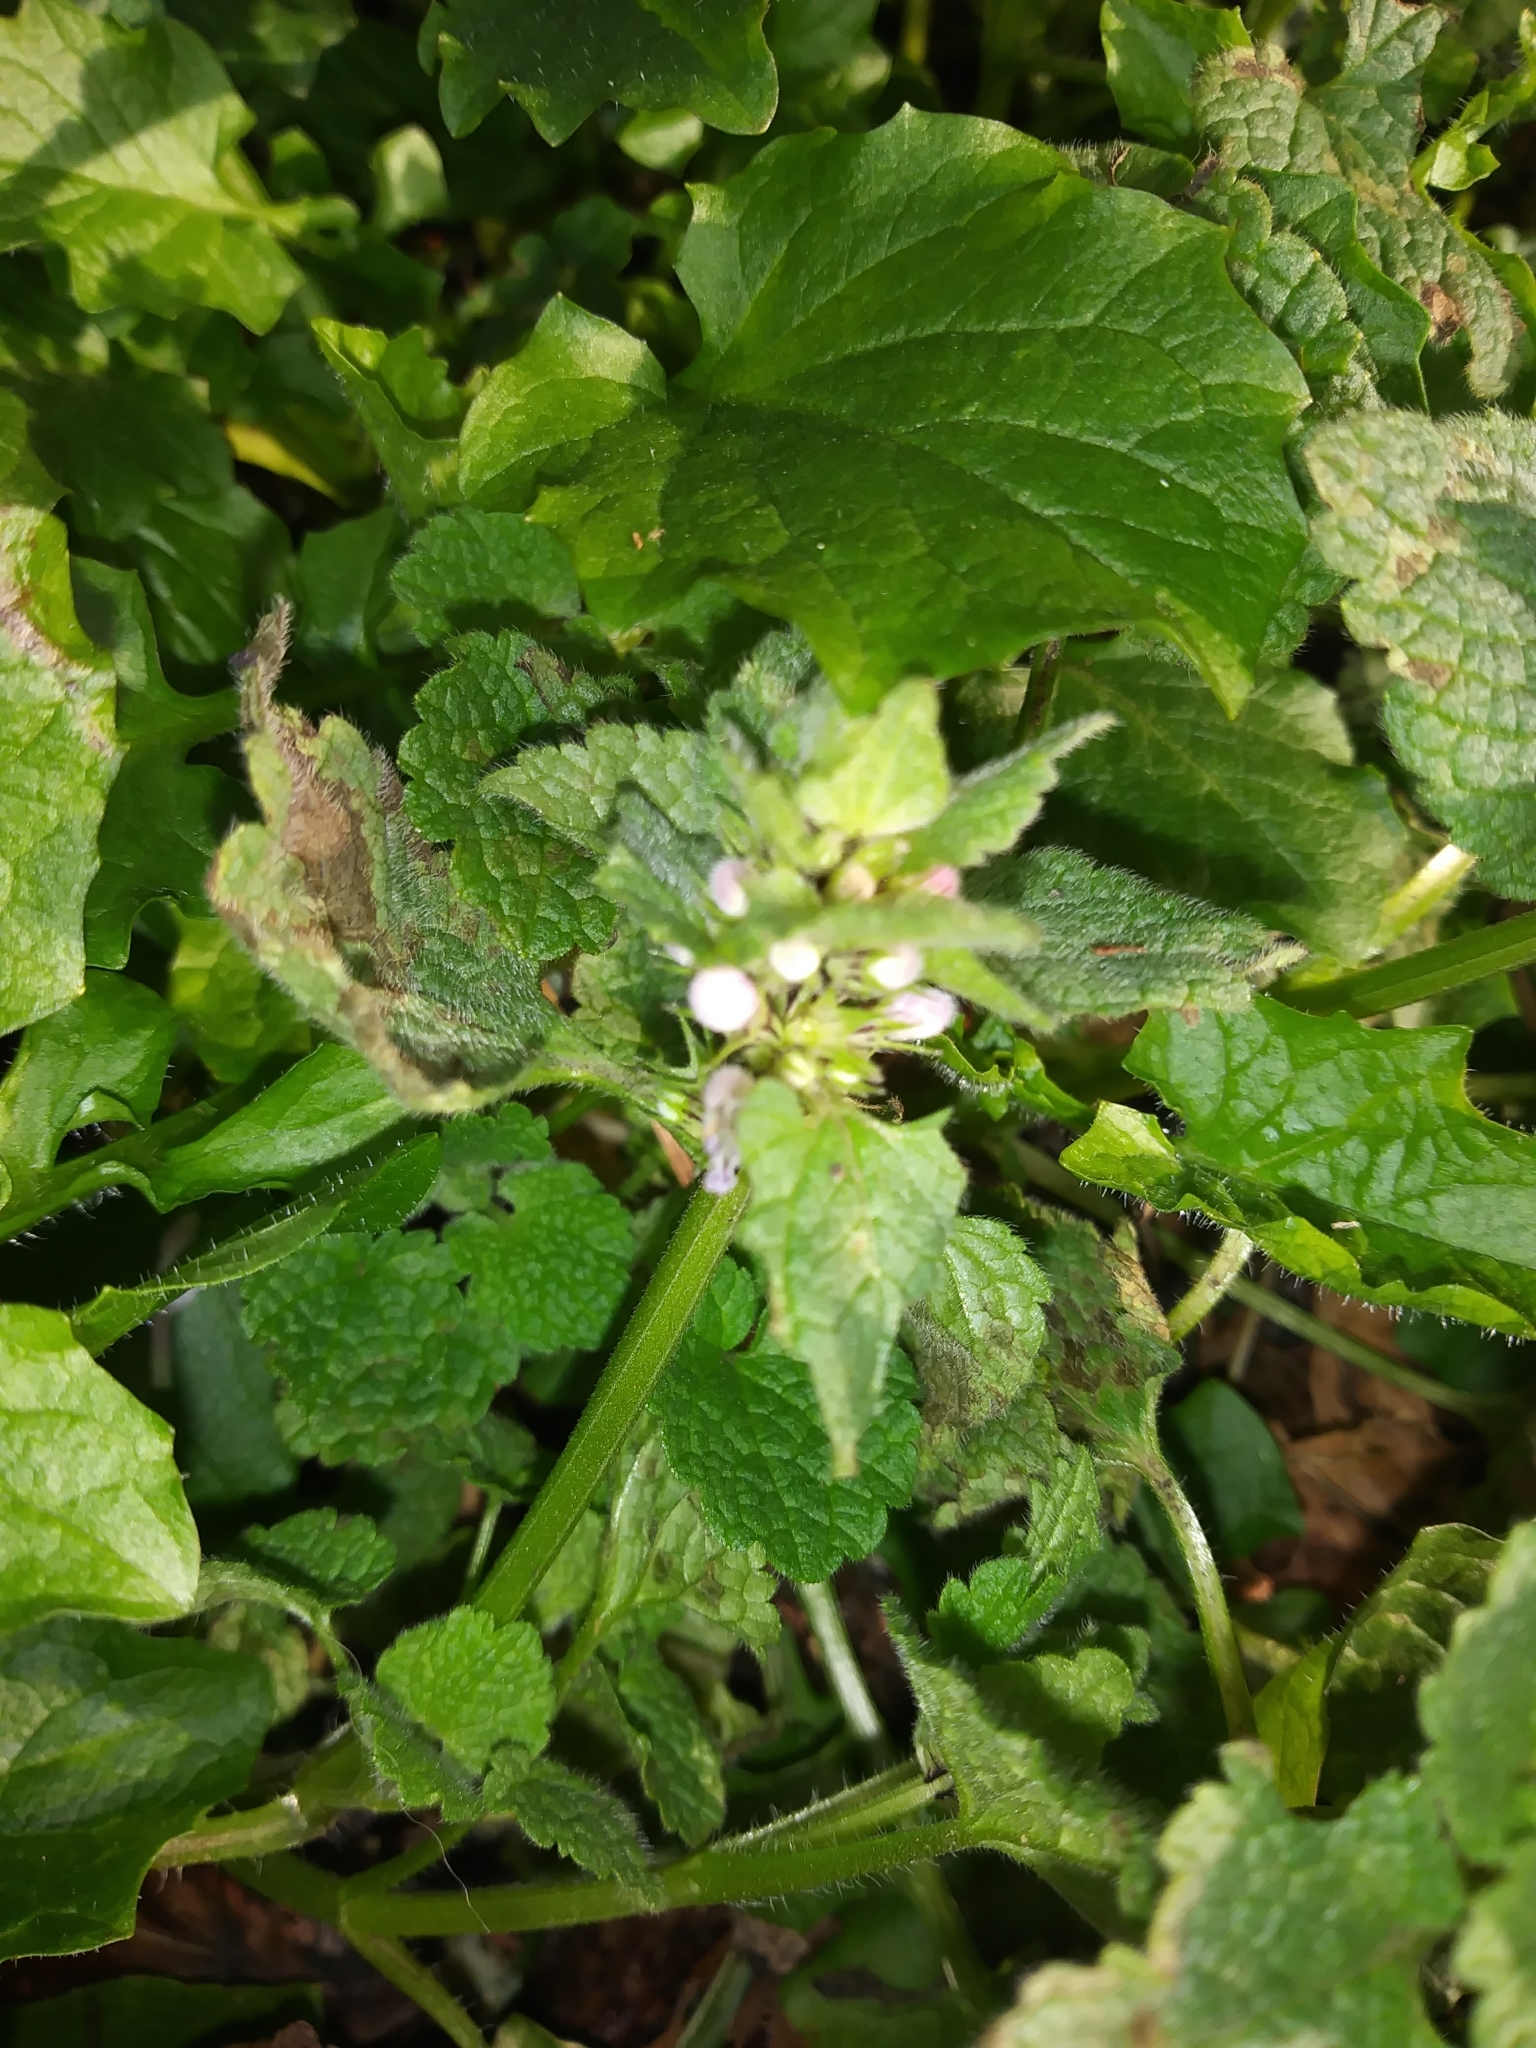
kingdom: Plantae
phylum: Tracheophyta
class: Magnoliopsida
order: Lamiales
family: Lamiaceae
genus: Lamium
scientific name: Lamium purpureum
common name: Red dead-nettle
